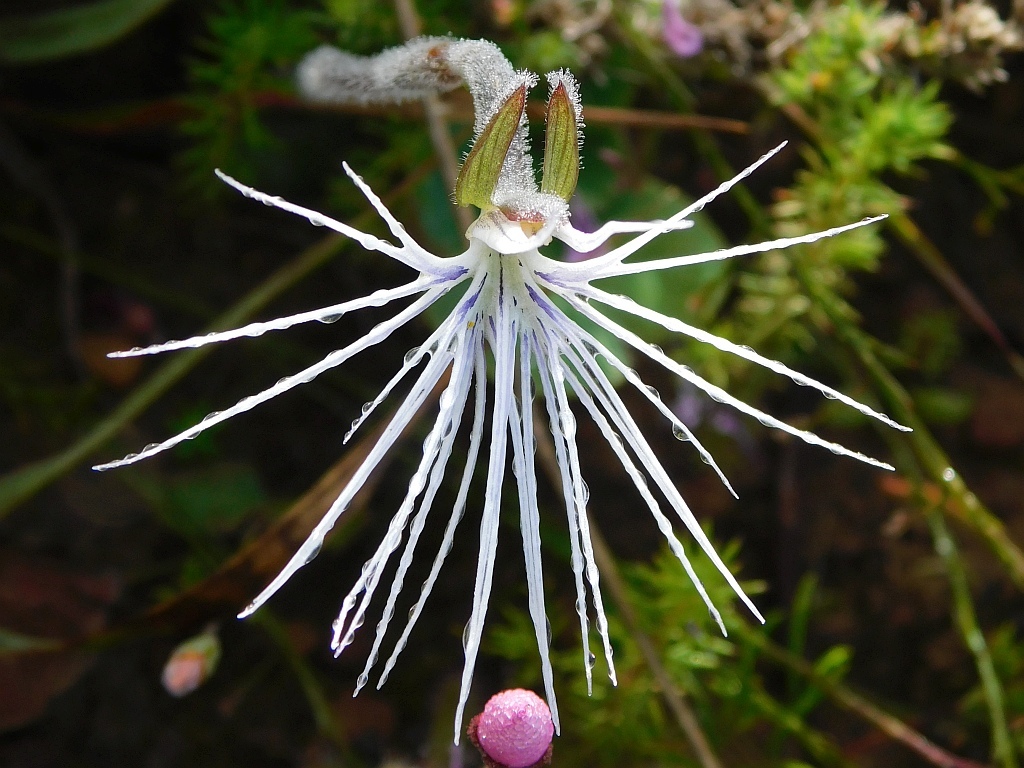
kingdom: Plantae
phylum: Tracheophyta
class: Liliopsida
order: Asparagales
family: Orchidaceae
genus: Holothrix
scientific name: Holothrix burmanniana
